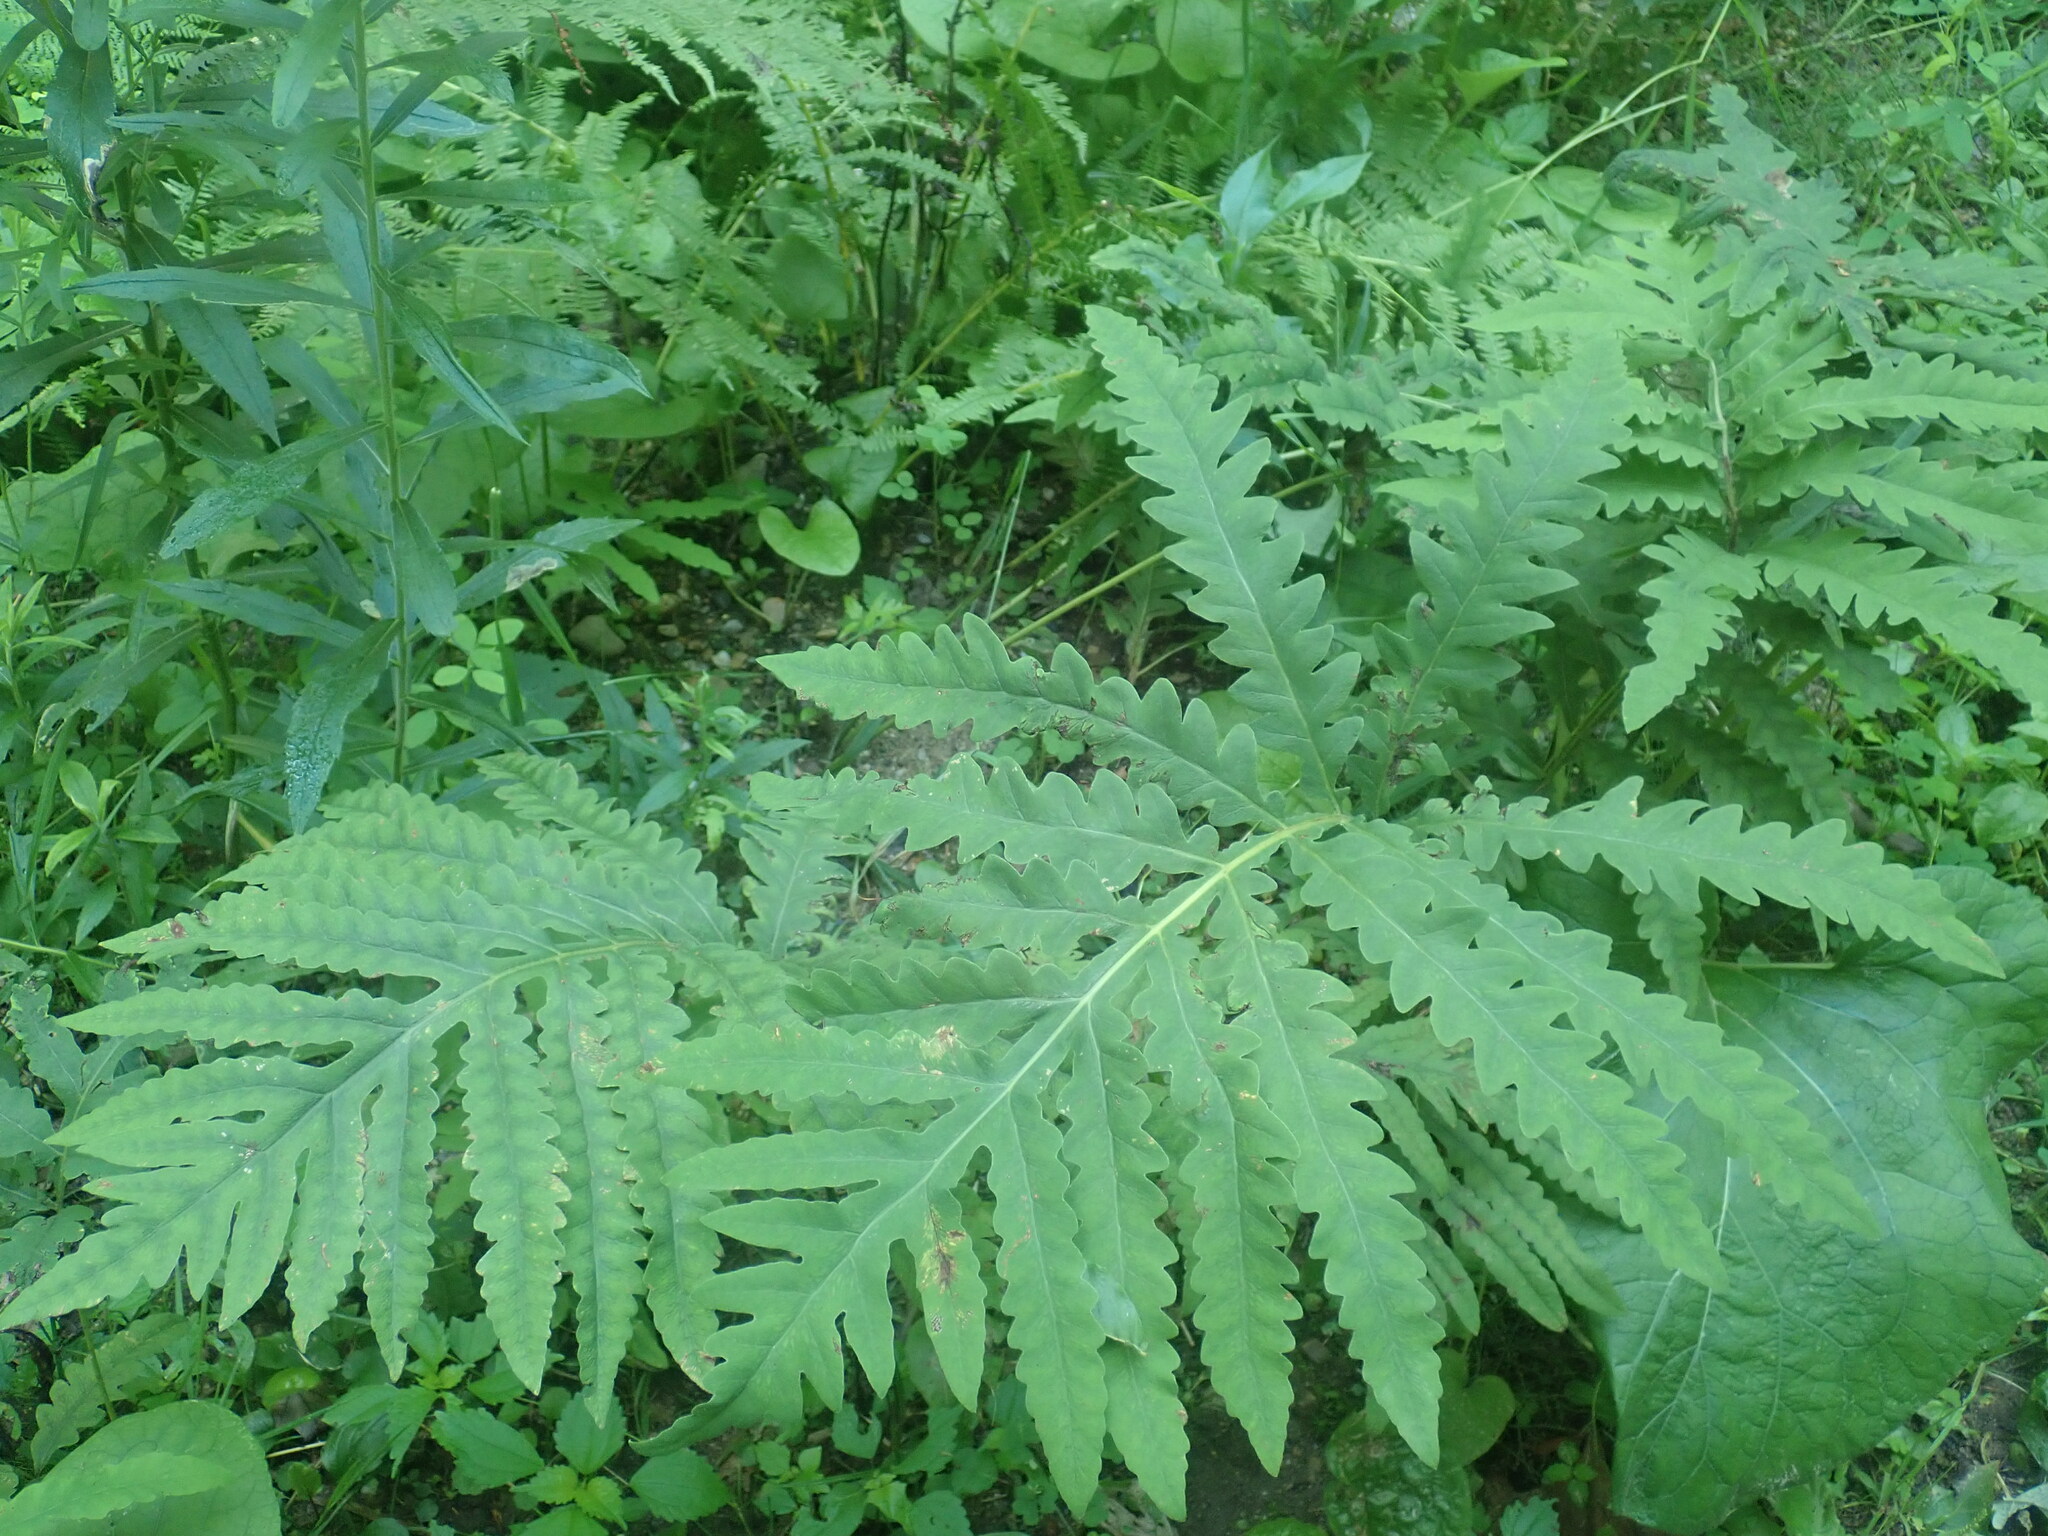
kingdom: Plantae
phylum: Tracheophyta
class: Polypodiopsida
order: Polypodiales
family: Onocleaceae
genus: Onoclea
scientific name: Onoclea sensibilis
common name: Sensitive fern
